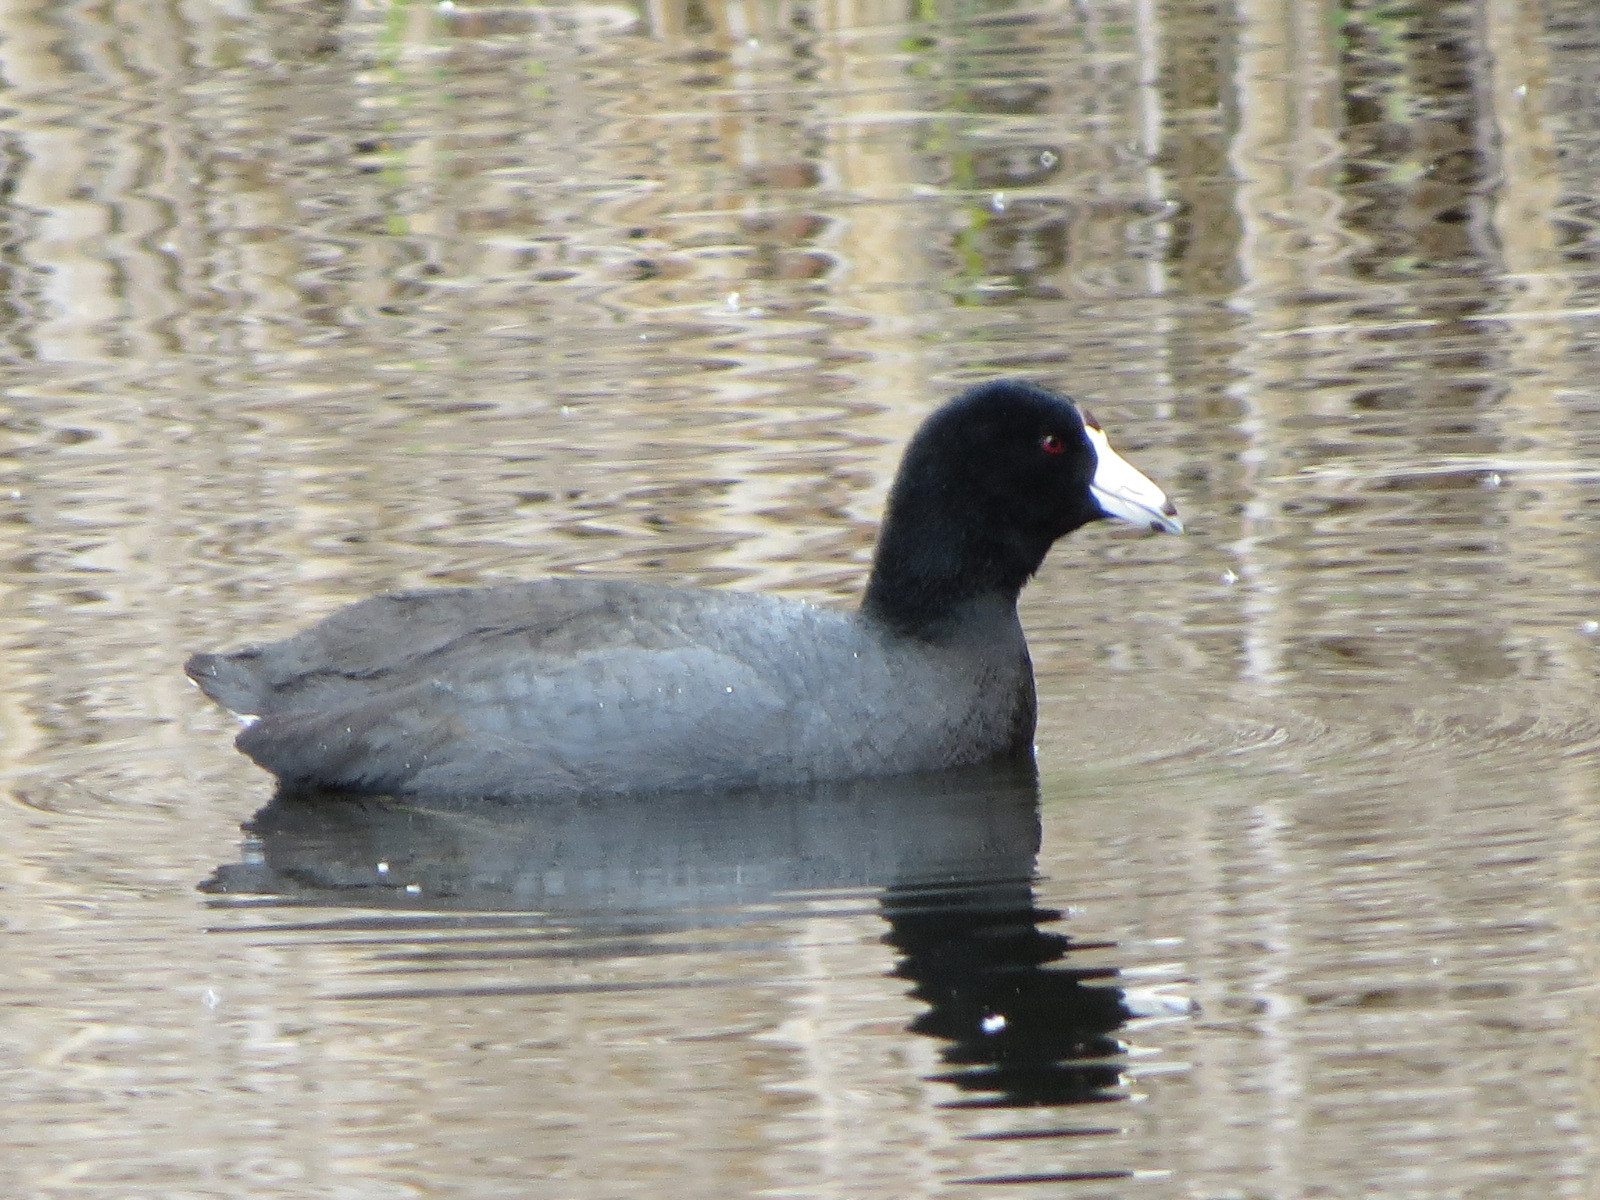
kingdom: Animalia
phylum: Chordata
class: Aves
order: Gruiformes
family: Rallidae
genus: Fulica
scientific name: Fulica americana
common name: American coot
